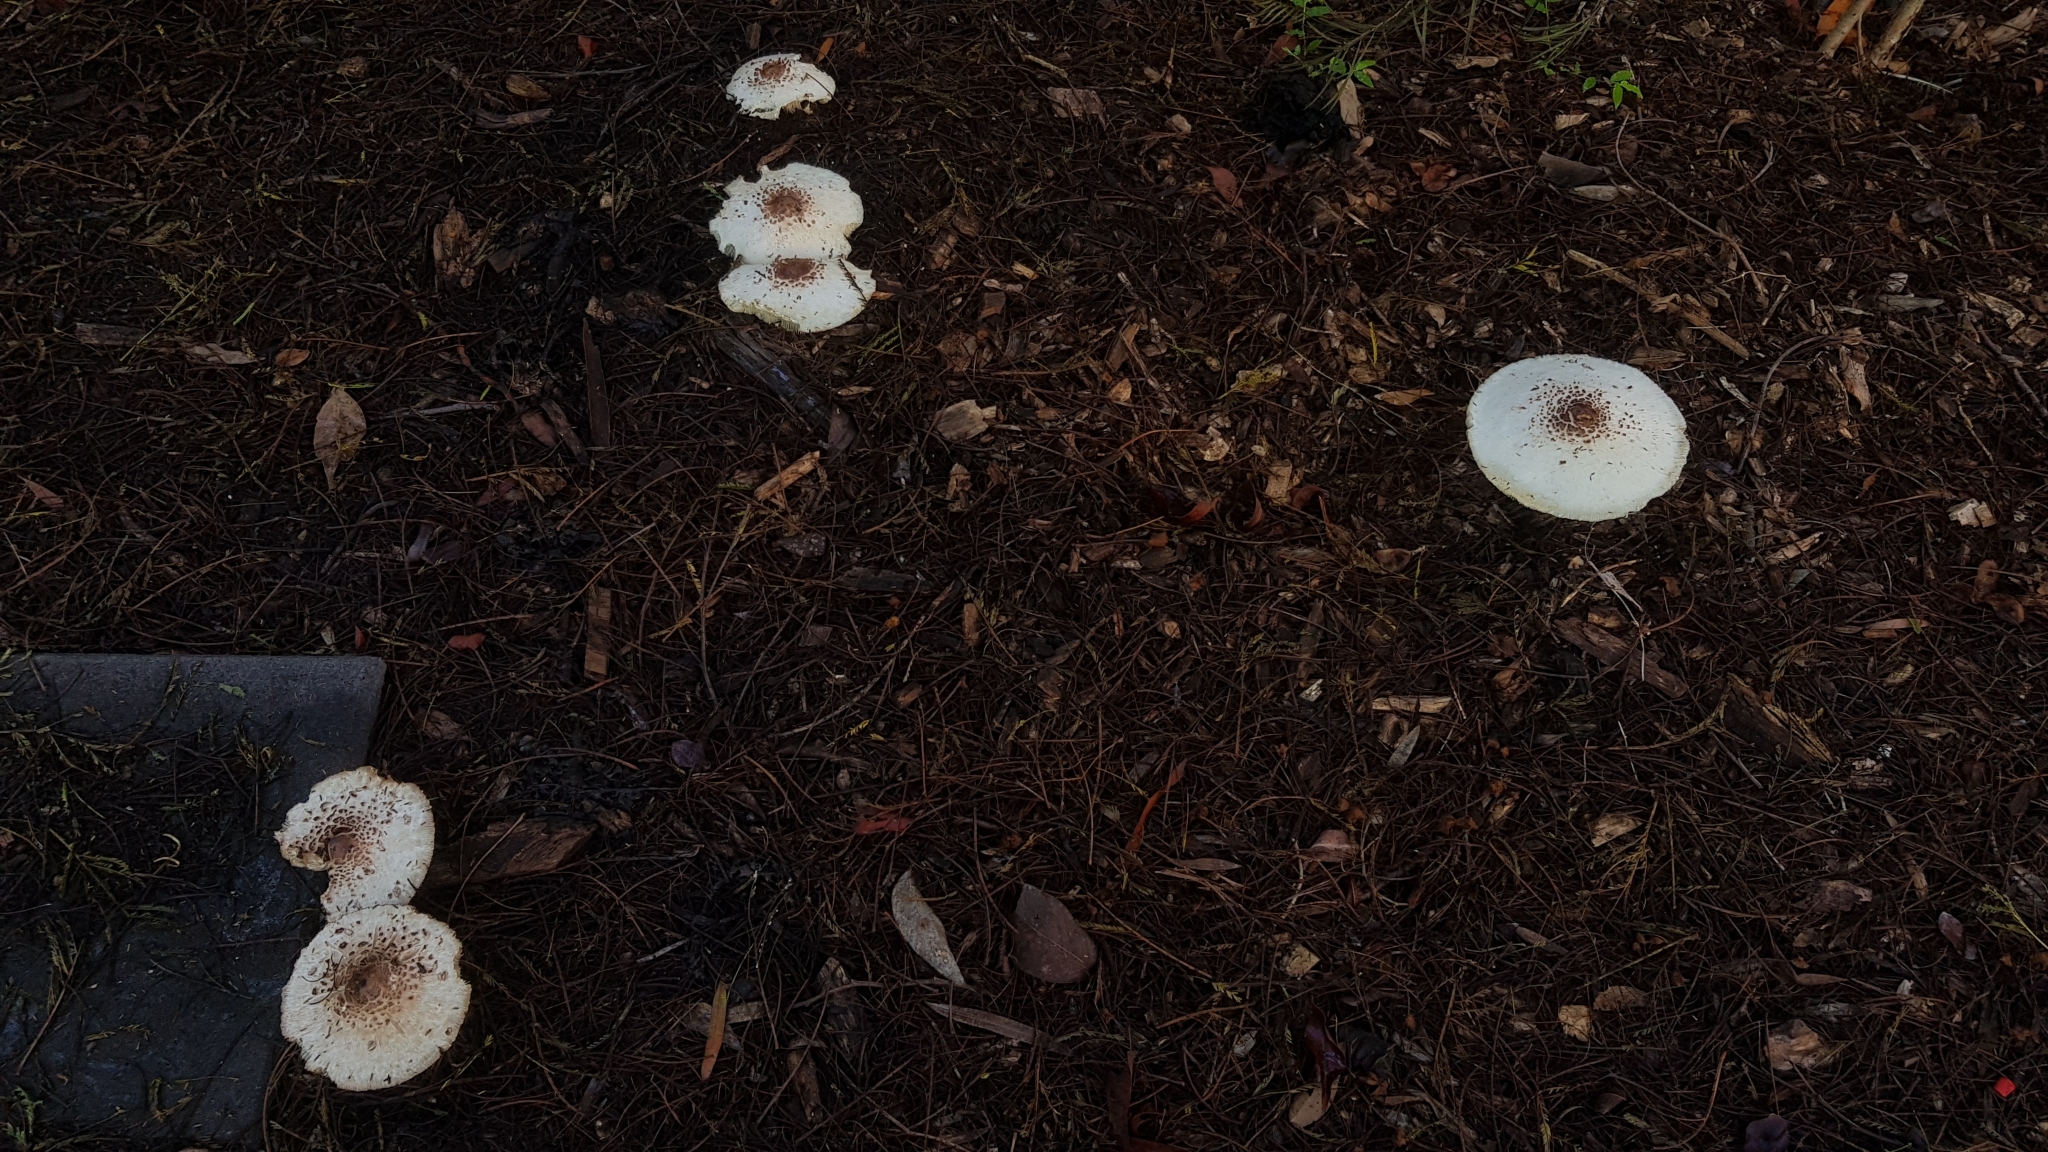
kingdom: Fungi
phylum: Basidiomycota
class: Agaricomycetes
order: Agaricales
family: Agaricaceae
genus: Chlorophyllum
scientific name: Chlorophyllum molybdites
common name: False parasol
